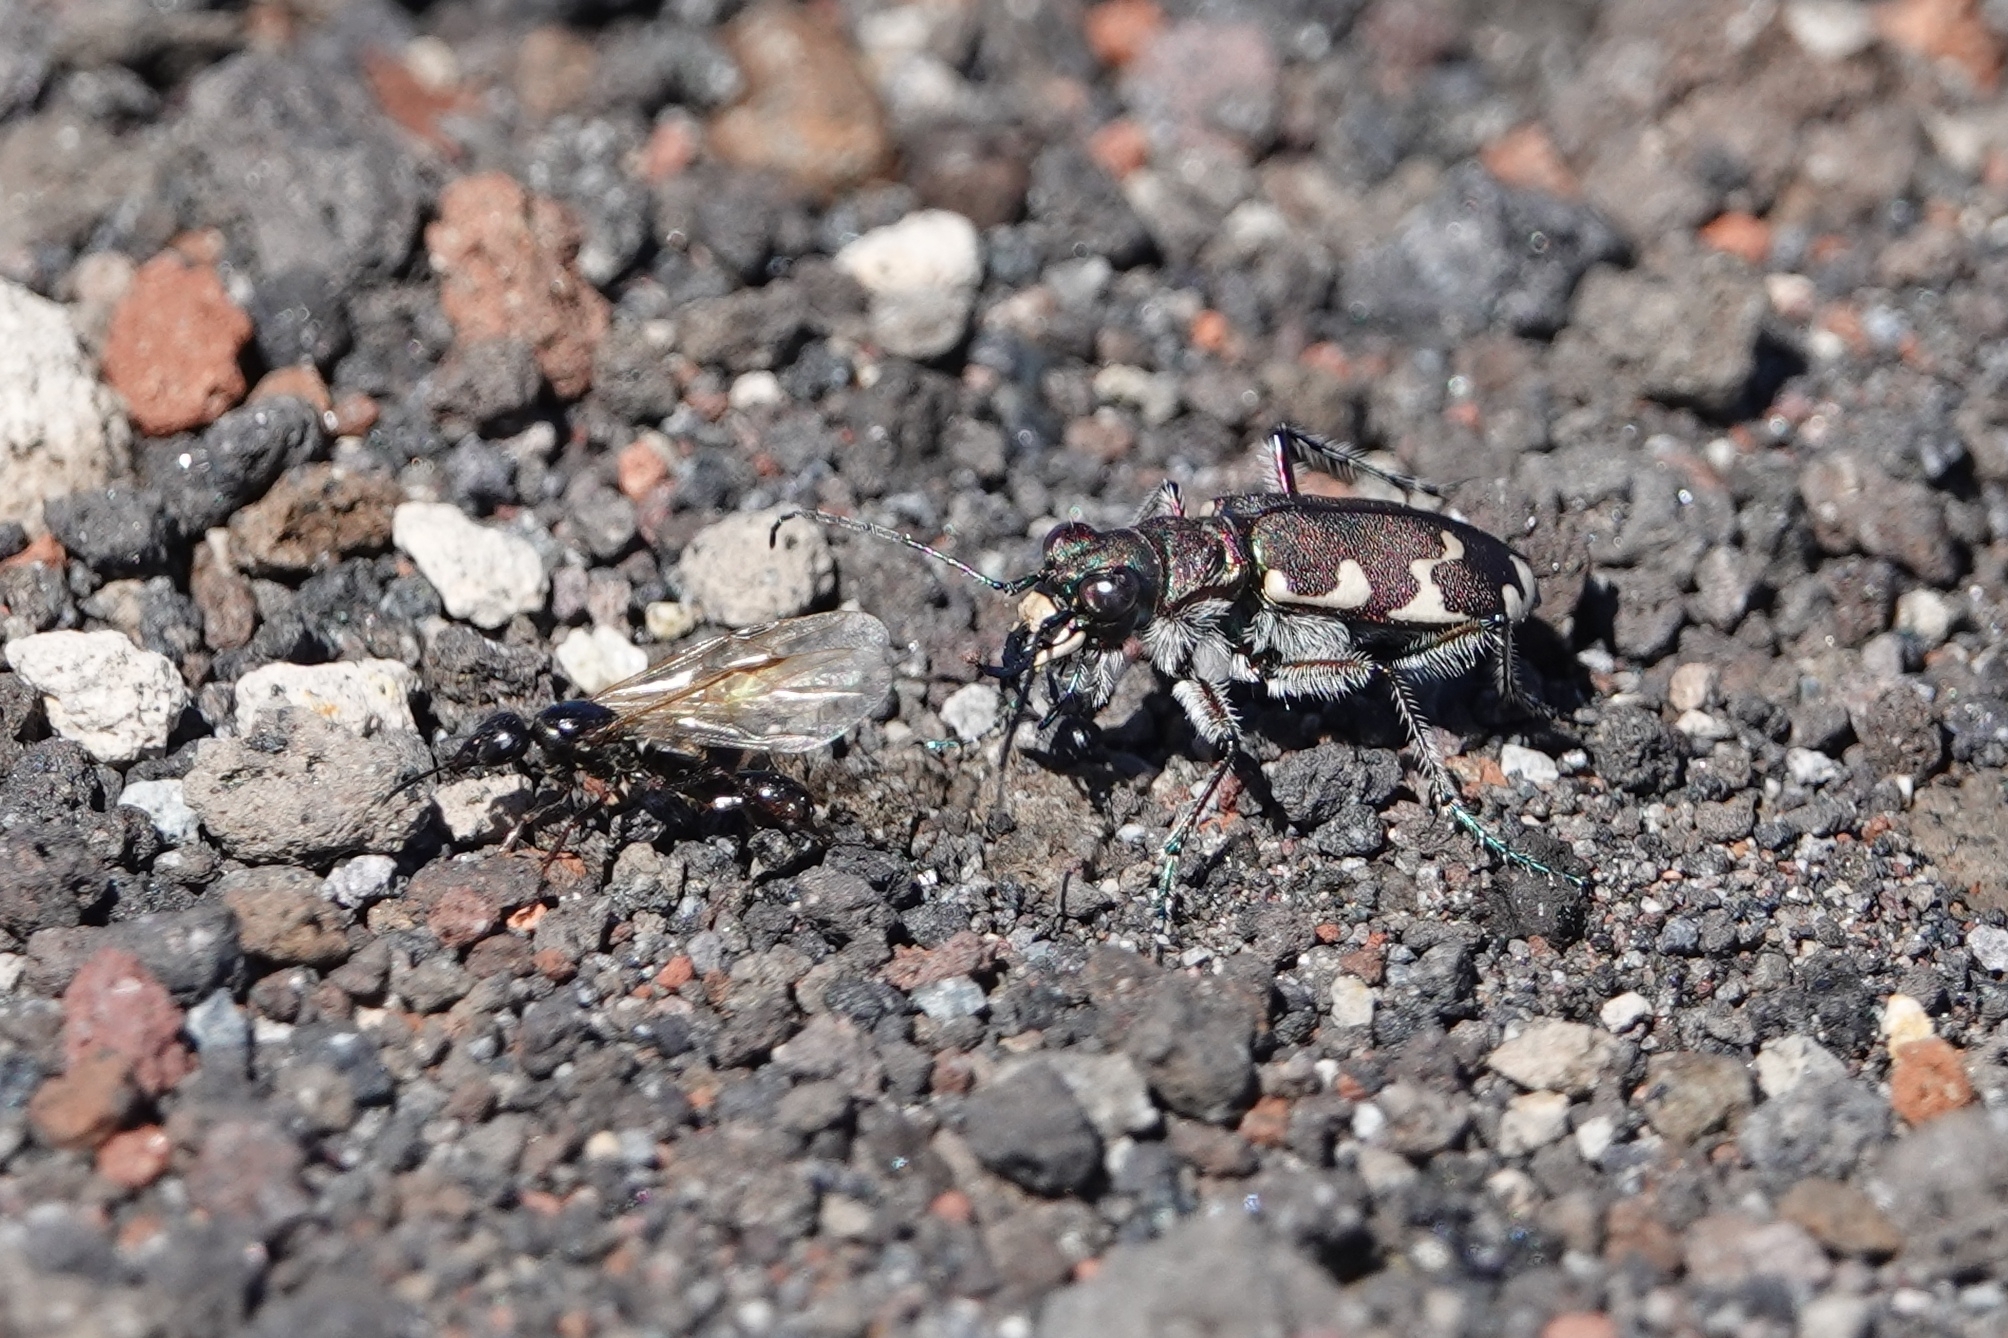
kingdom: Animalia
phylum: Arthropoda
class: Insecta
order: Coleoptera
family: Carabidae
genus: Cicindela
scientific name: Cicindela restricta
